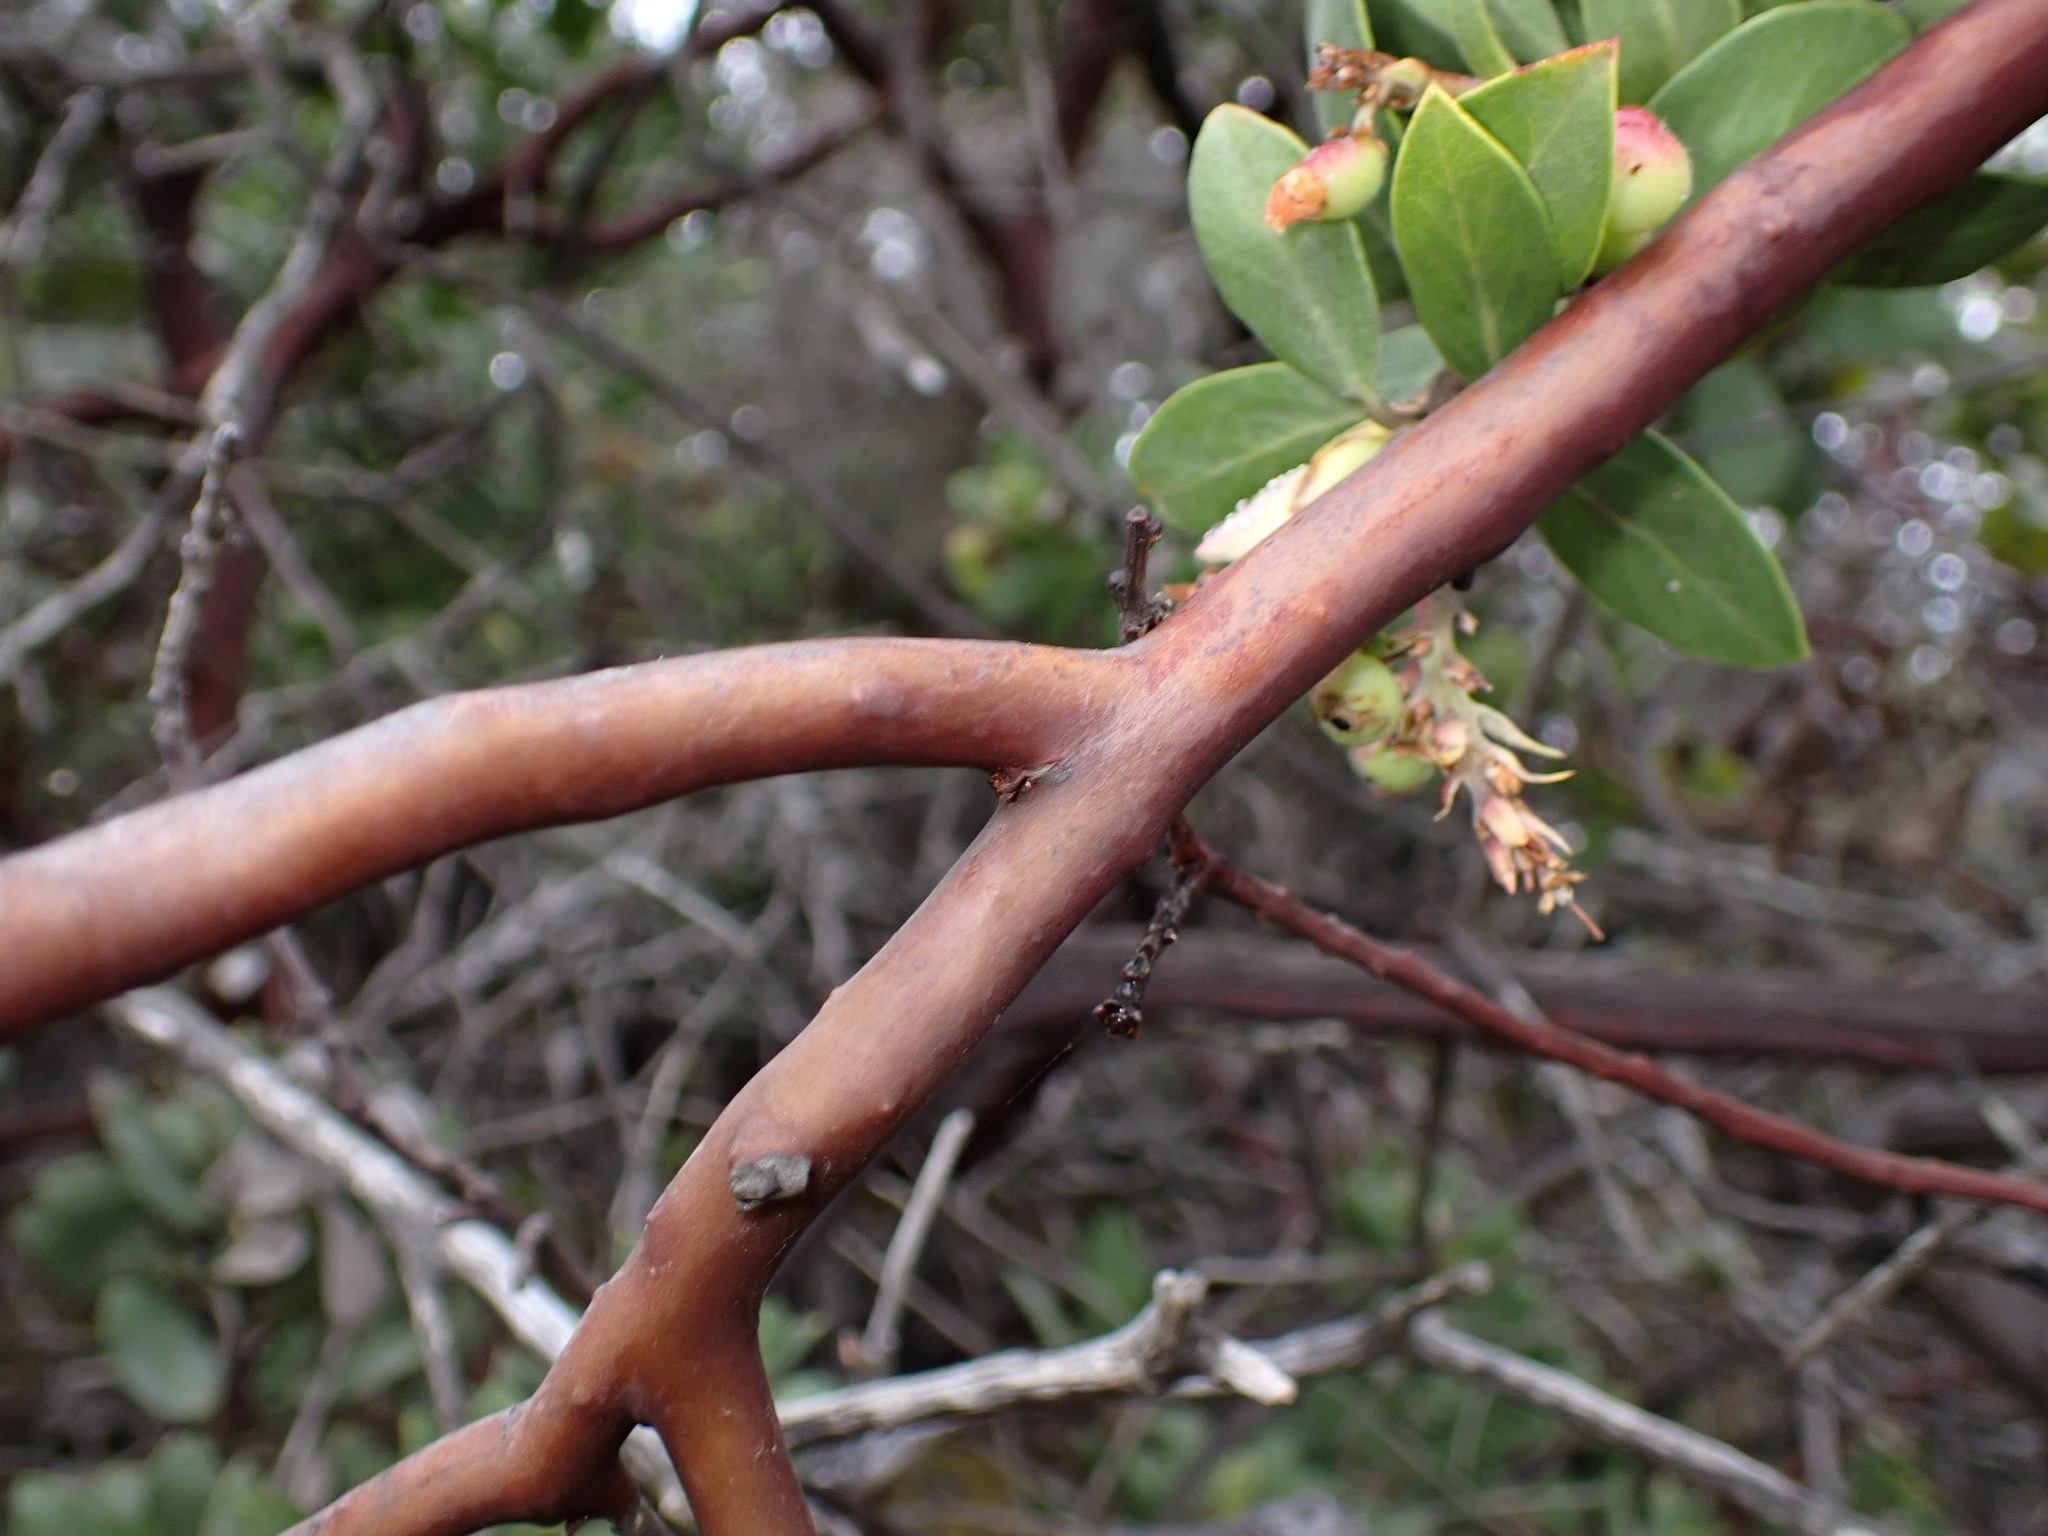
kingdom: Plantae
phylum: Tracheophyta
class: Magnoliopsida
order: Ericales
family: Ericaceae
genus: Arctostaphylos
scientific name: Arctostaphylos glandulosa
